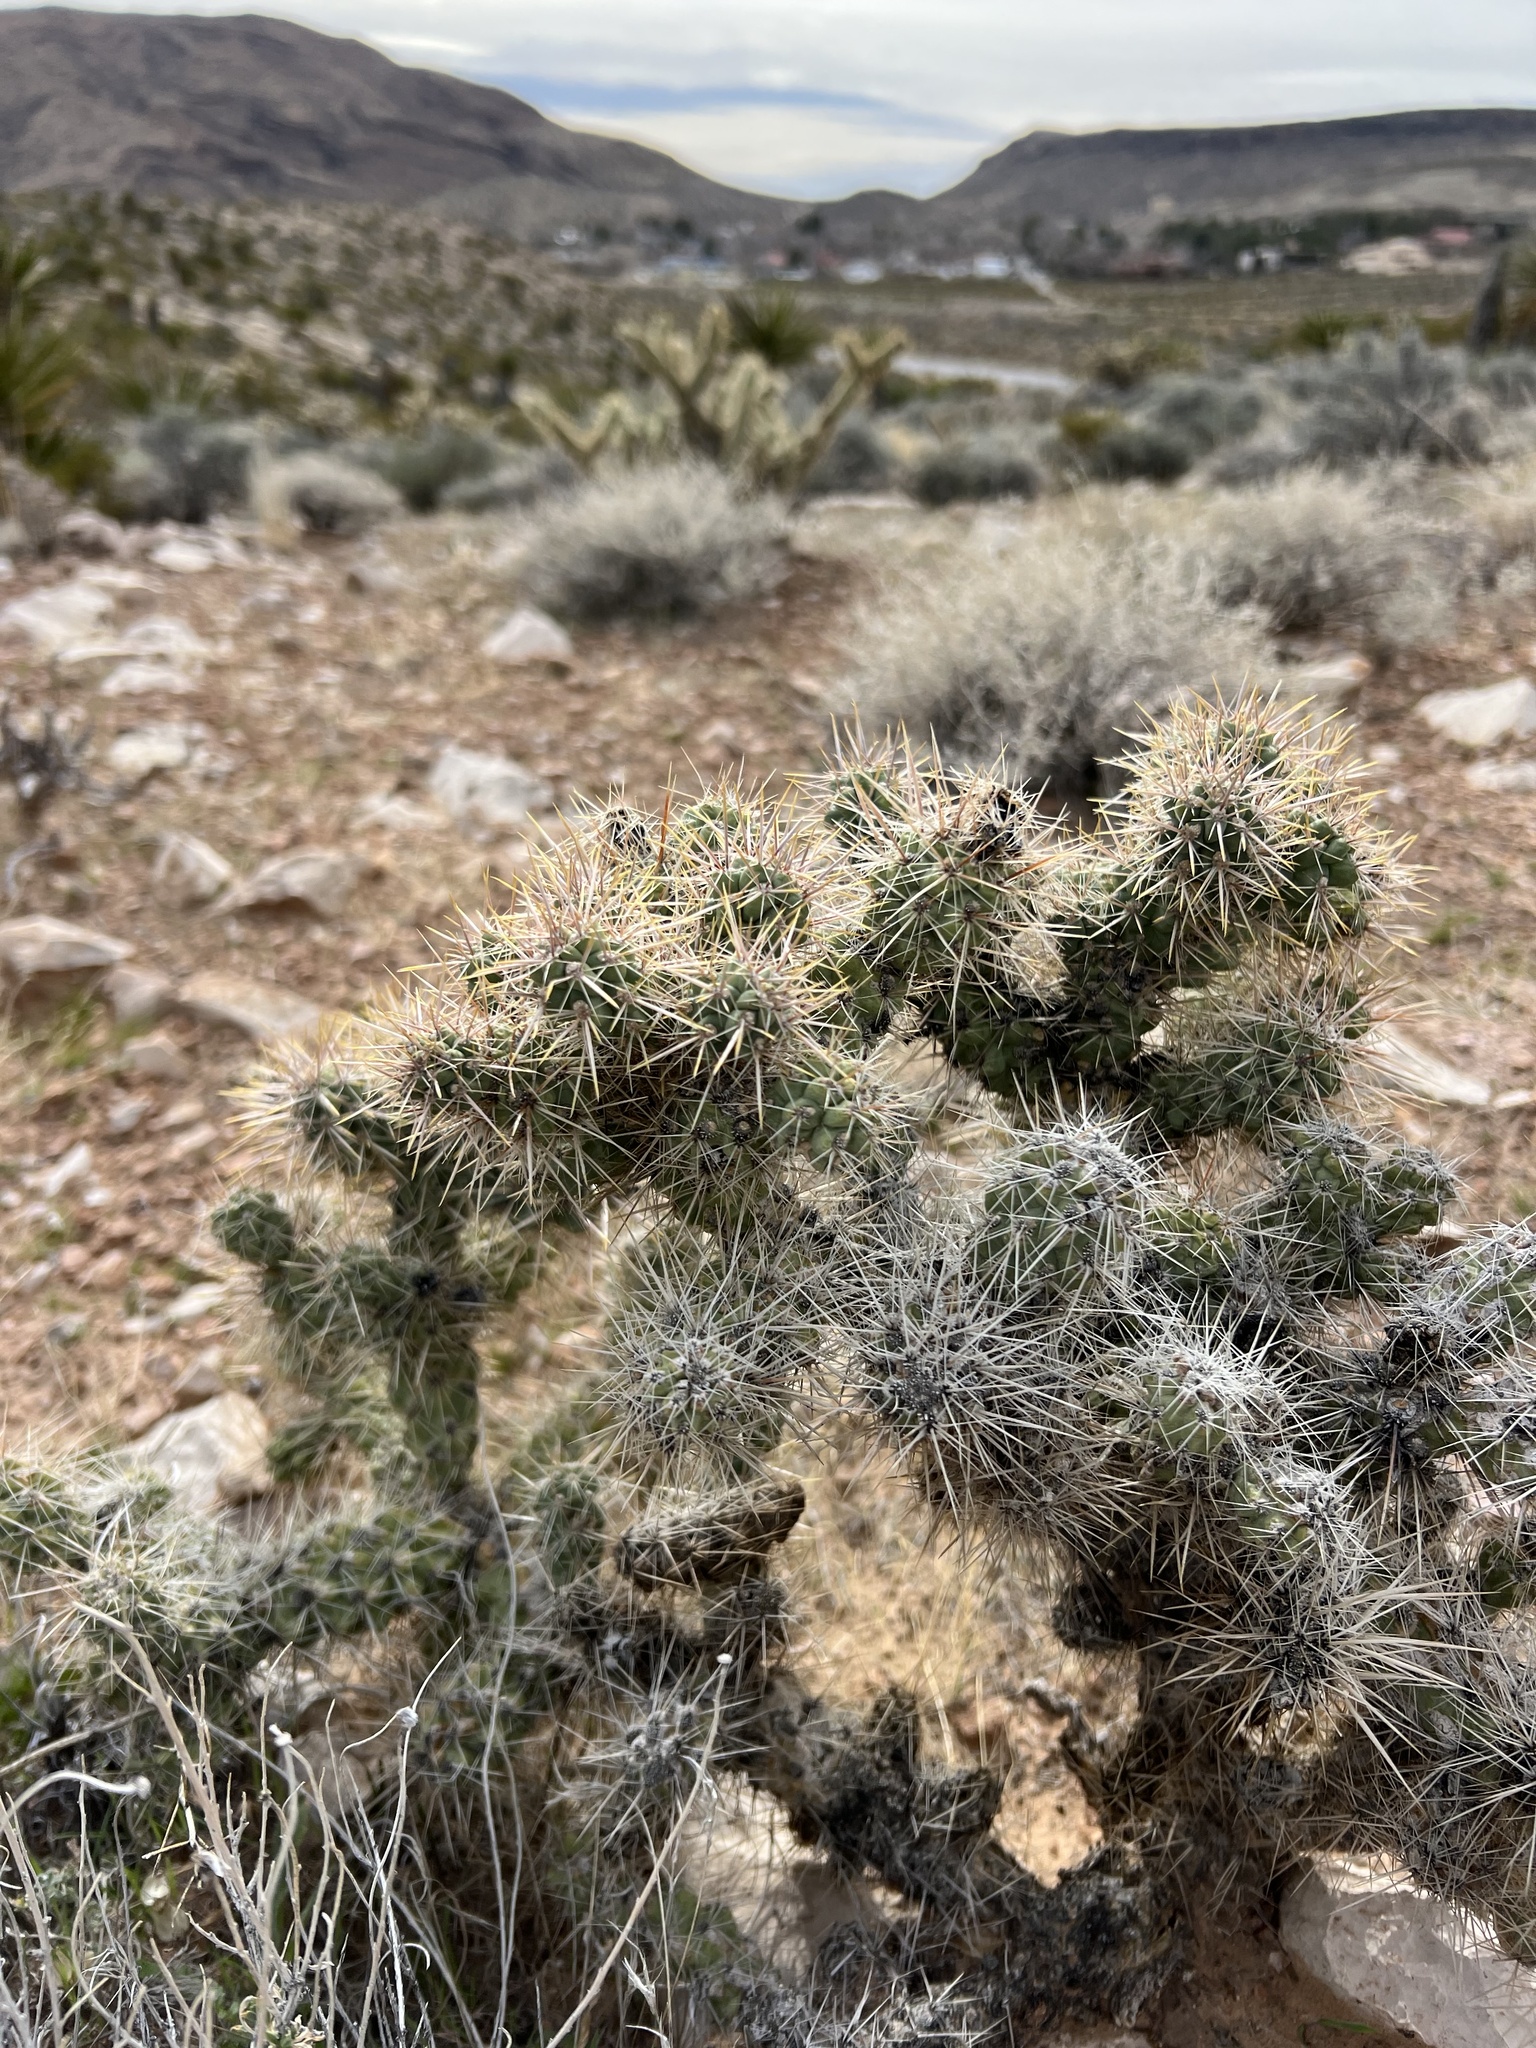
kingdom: Plantae
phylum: Tracheophyta
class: Magnoliopsida
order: Caryophyllales
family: Cactaceae
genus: Cylindropuntia
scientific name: Cylindropuntia echinocarpa
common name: Ground cholla
